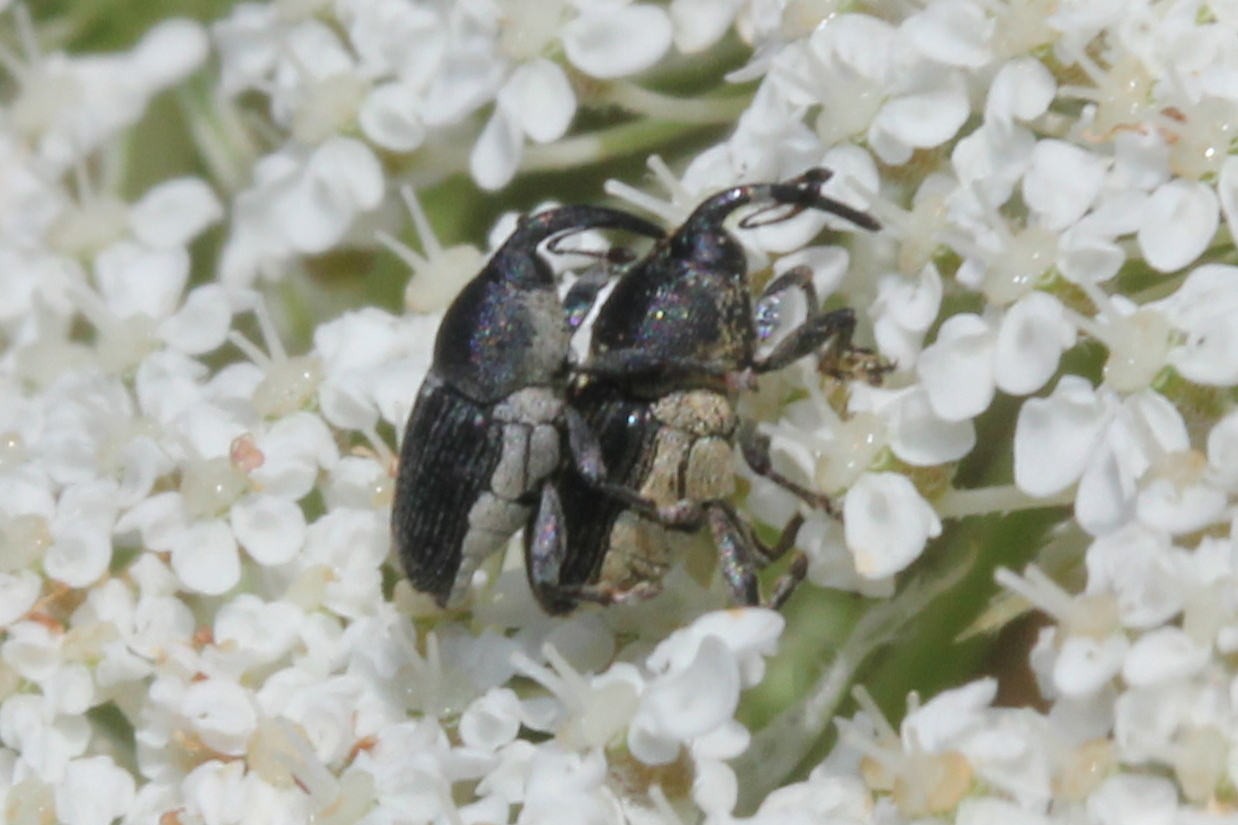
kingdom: Animalia
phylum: Arthropoda
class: Insecta
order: Coleoptera
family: Curculionidae
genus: Odontocorynus
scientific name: Odontocorynus salebrosus
